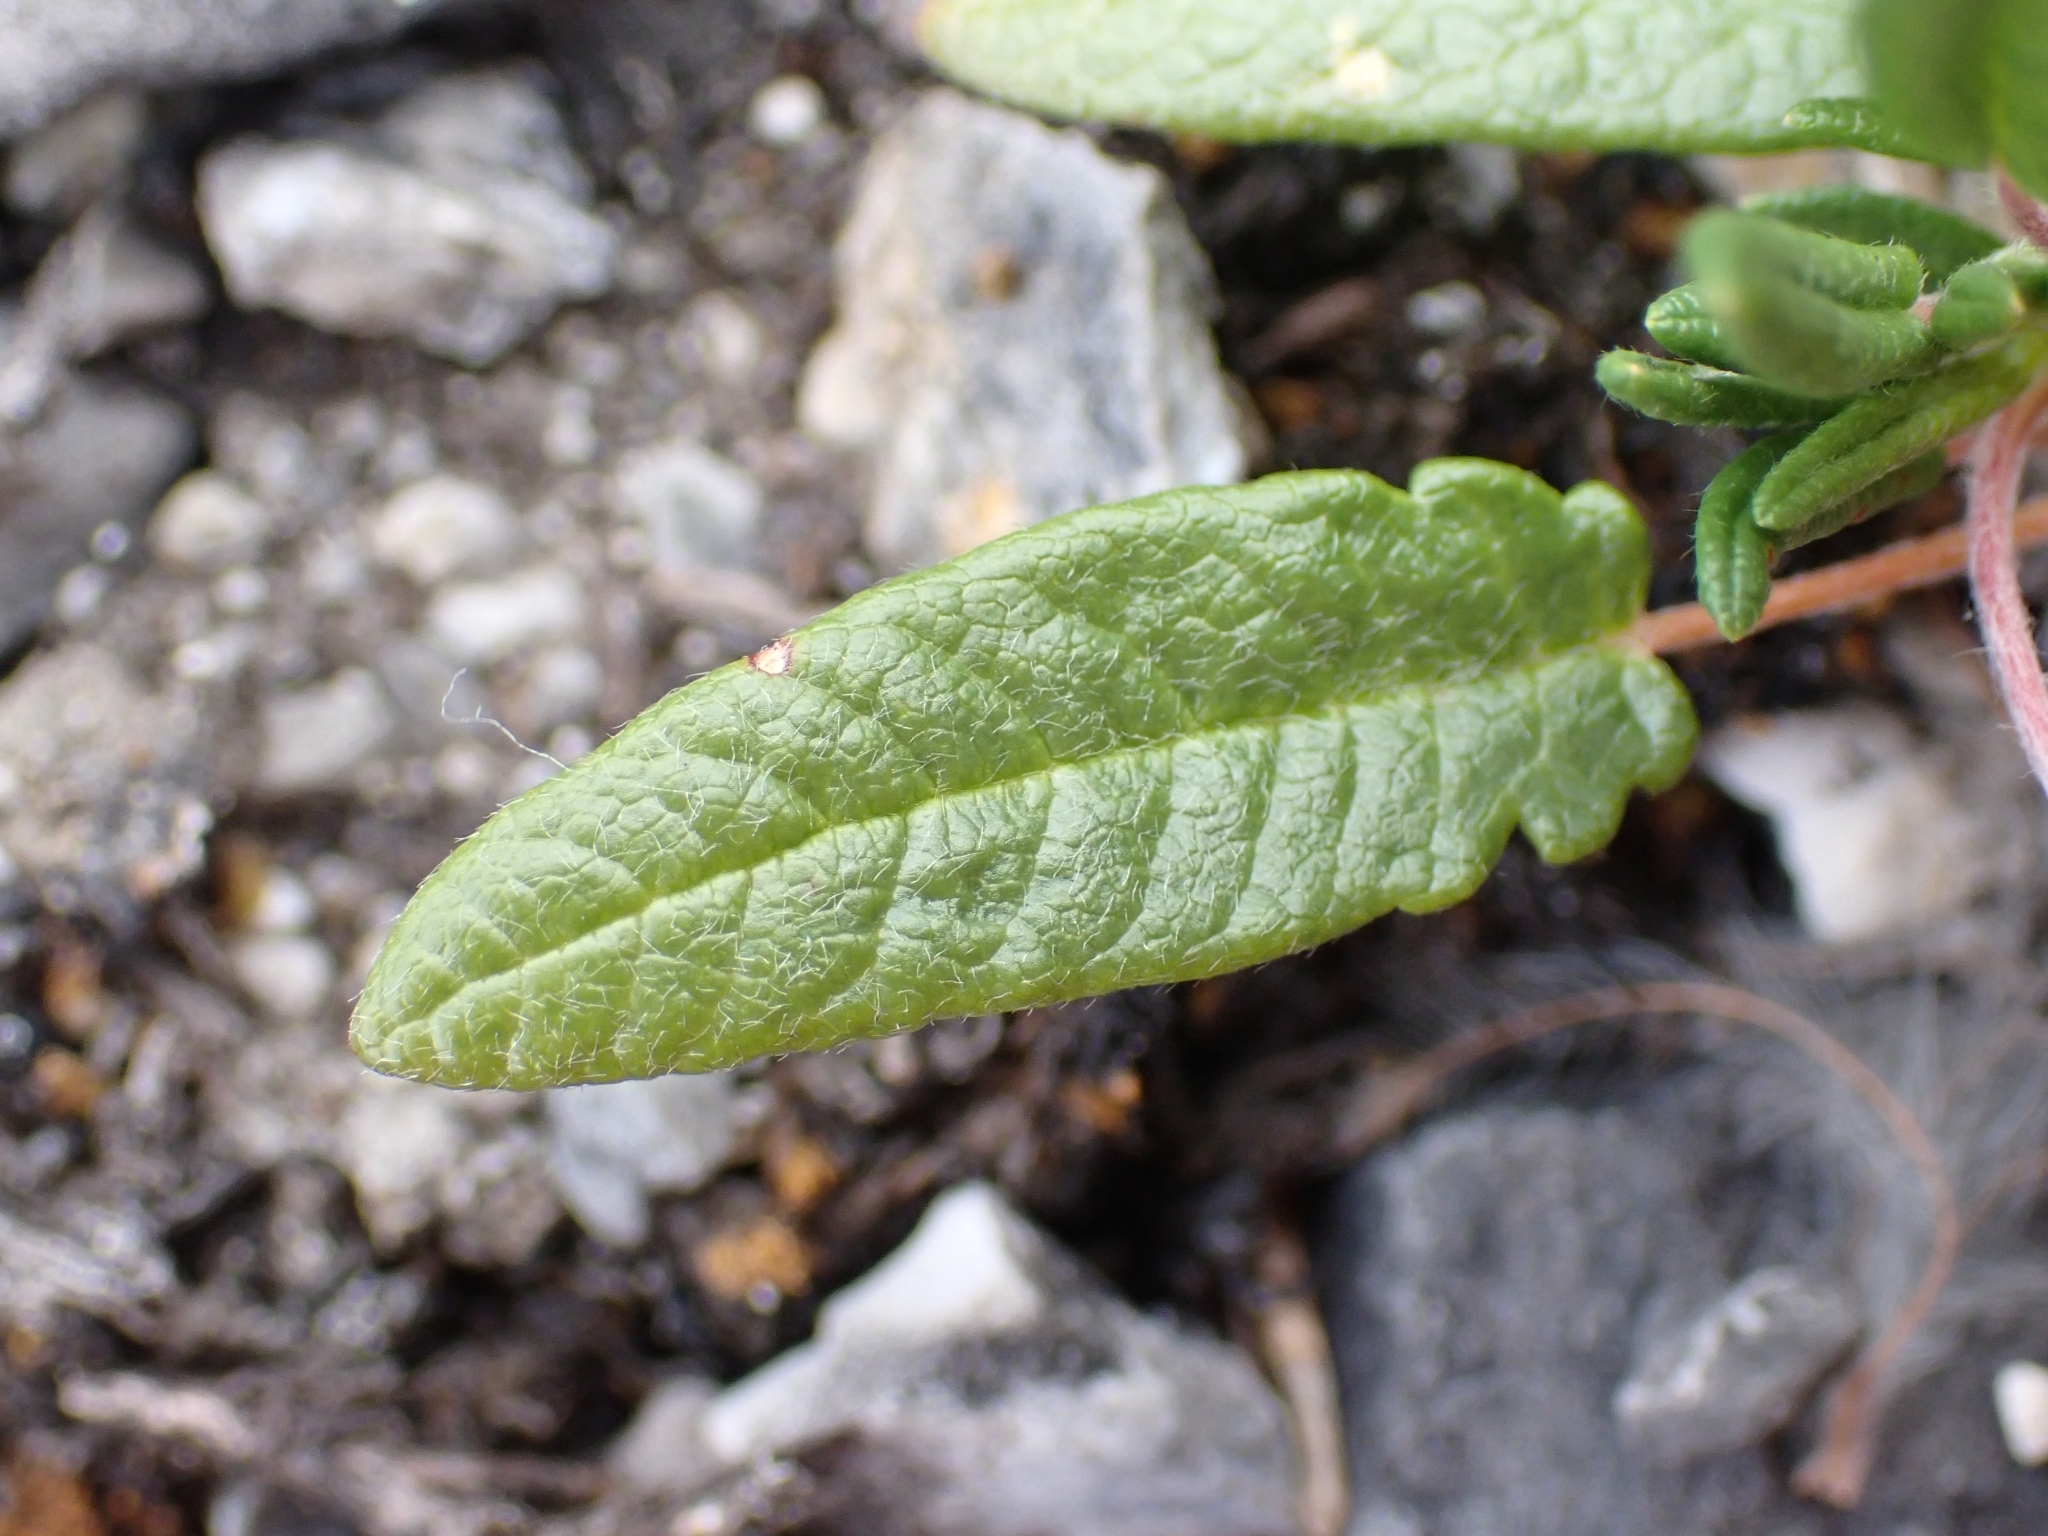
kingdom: Plantae
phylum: Tracheophyta
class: Magnoliopsida
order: Rosales
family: Rosaceae
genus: Dryas
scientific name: Dryas integrifolia
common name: Entire-leaved mountain avens
